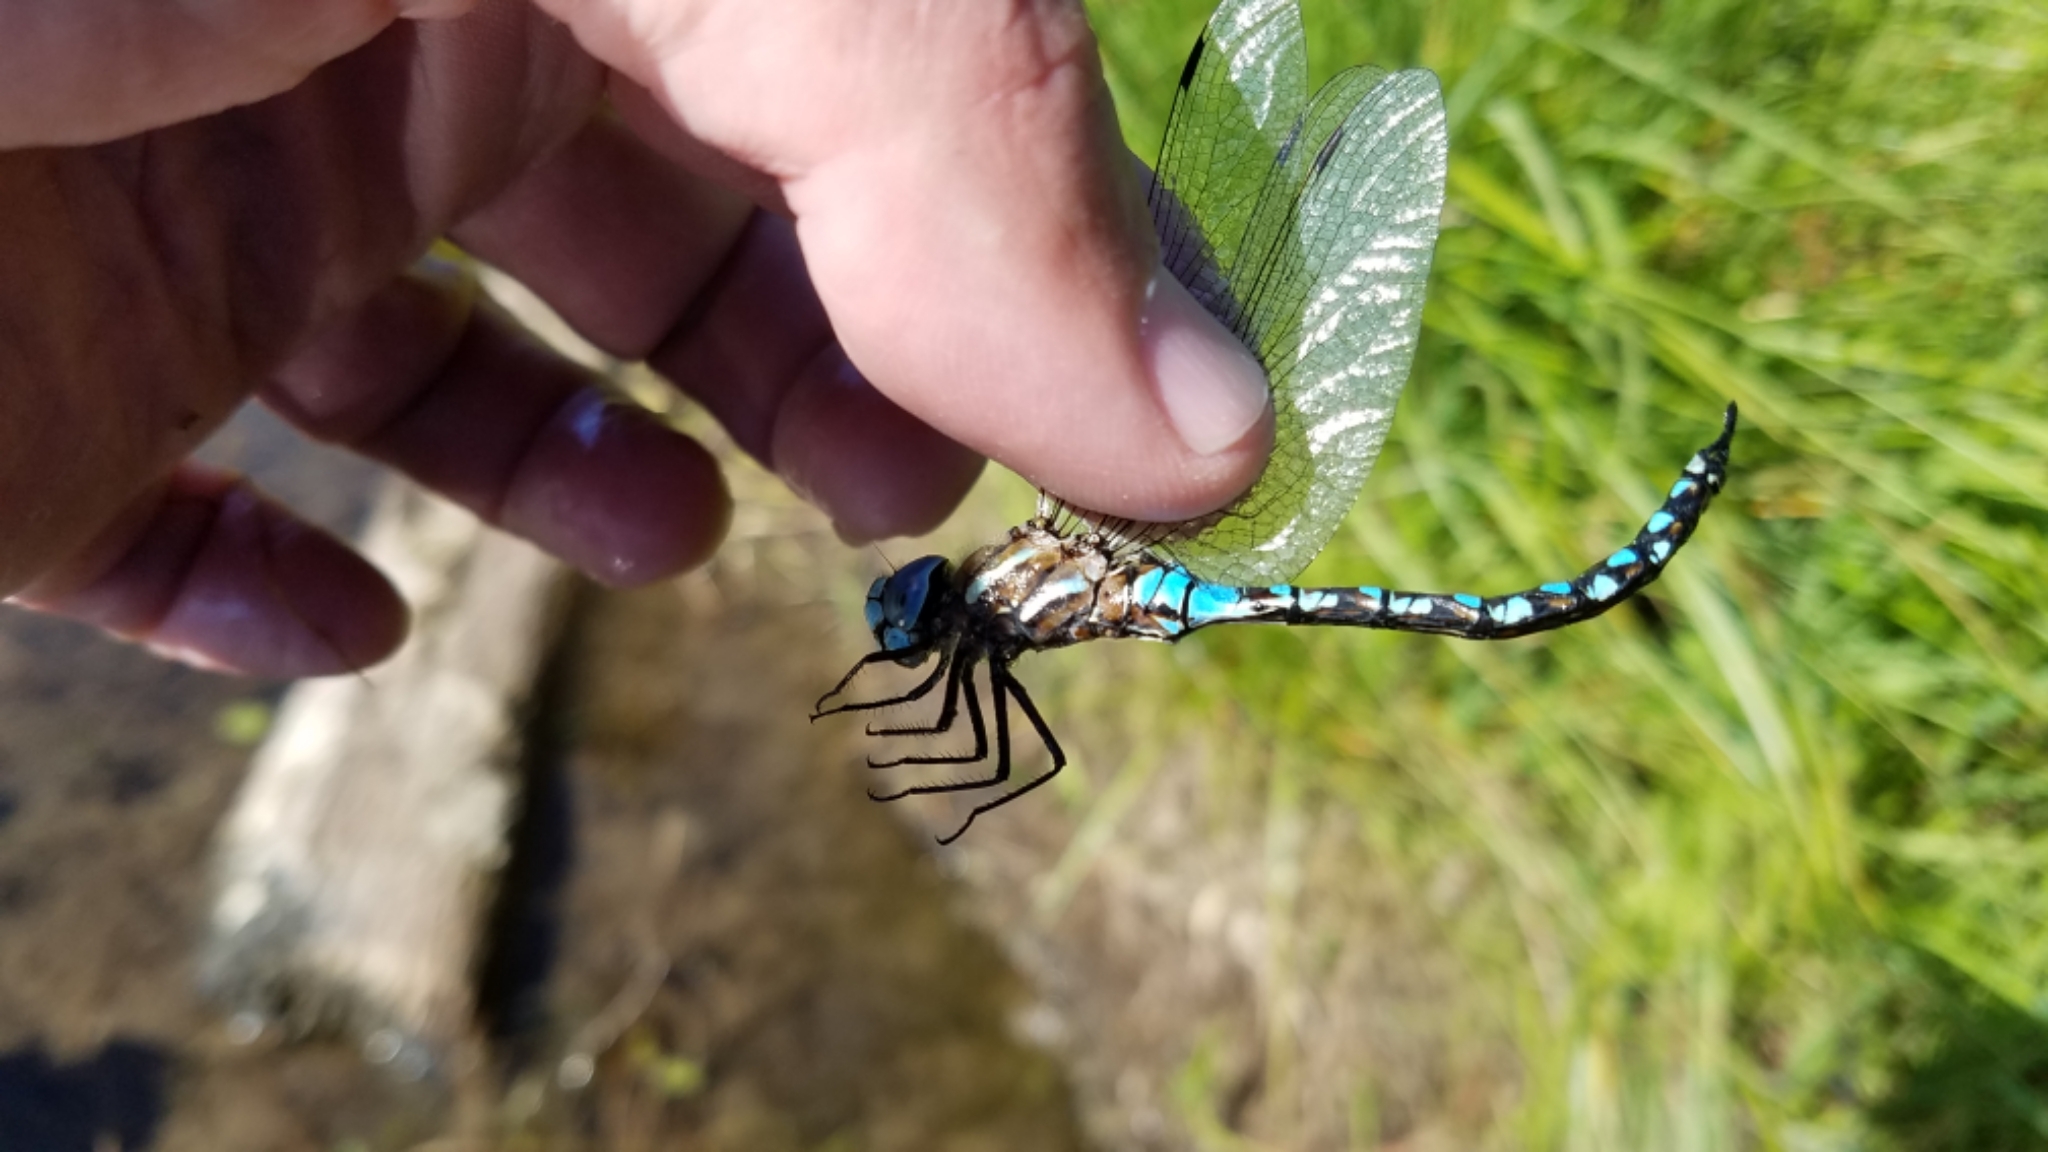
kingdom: Animalia
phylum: Arthropoda
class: Insecta
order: Odonata
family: Aeshnidae
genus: Rhionaeschna
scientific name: Rhionaeschna californica
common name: California darner
